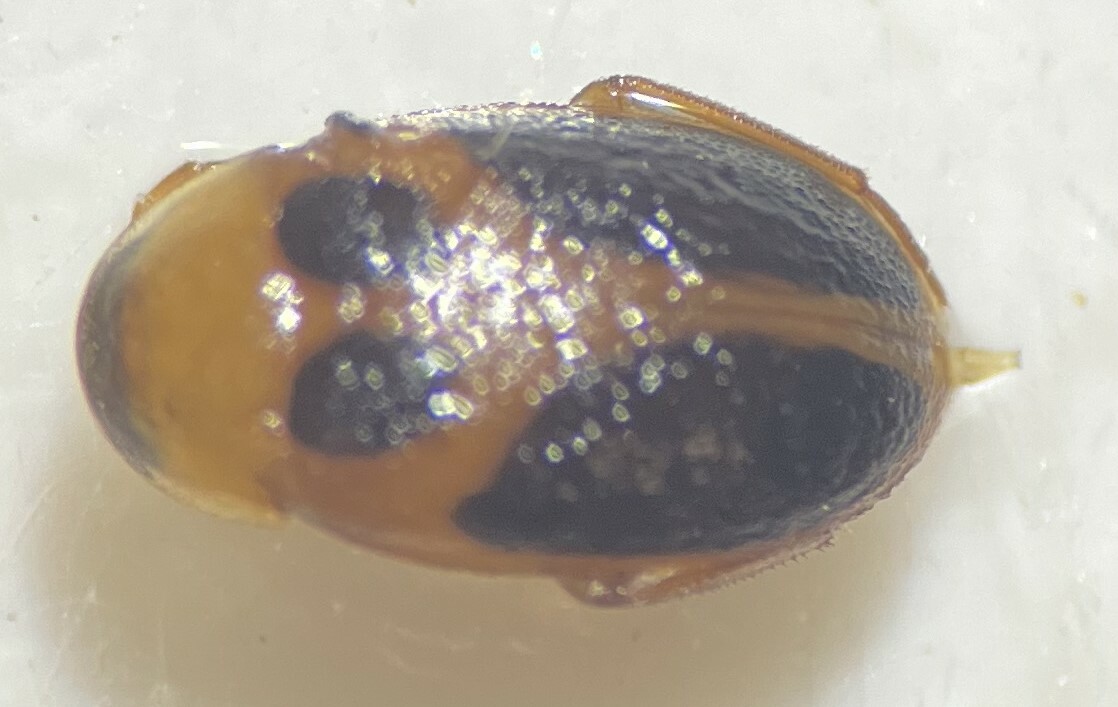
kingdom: Animalia
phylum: Arthropoda
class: Insecta
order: Coleoptera
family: Scirtidae
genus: Sacodes
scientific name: Sacodes pulchella
